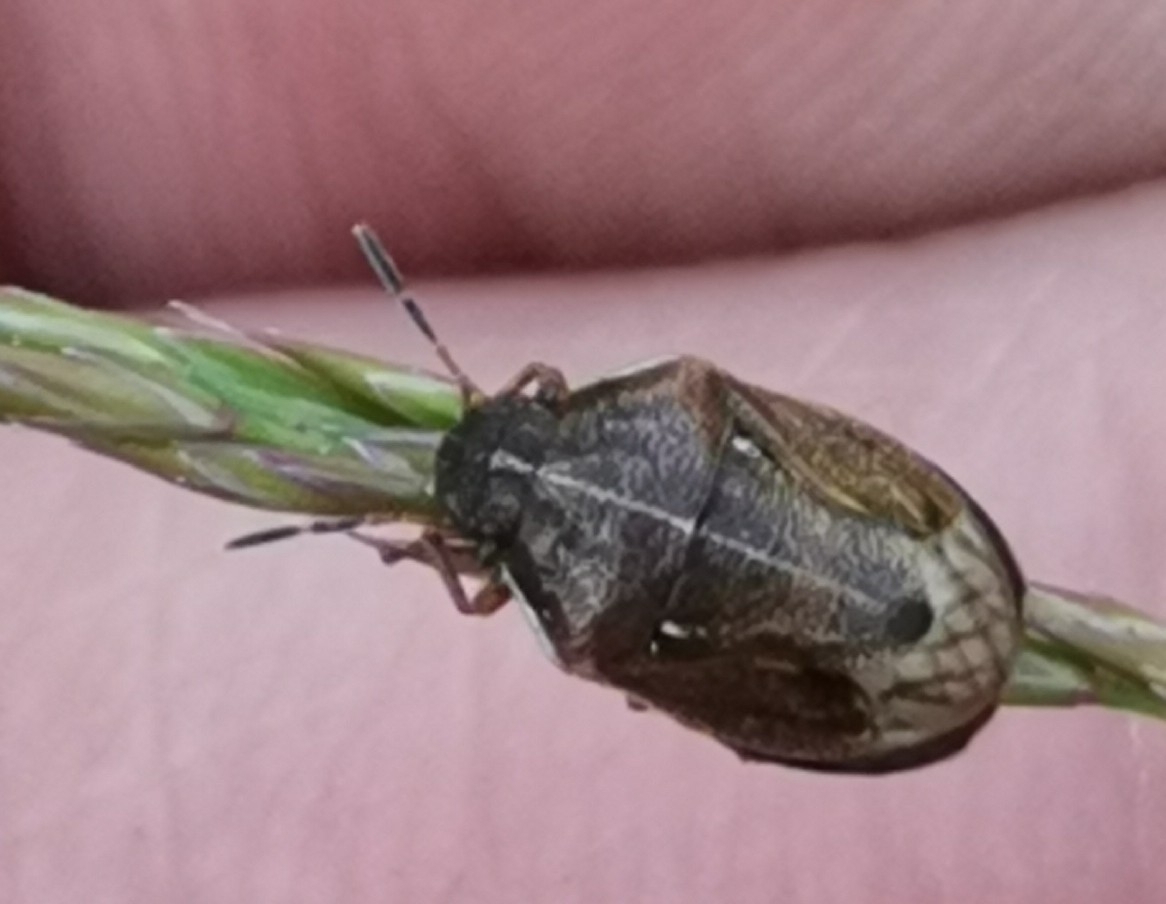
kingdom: Animalia
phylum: Arthropoda
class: Insecta
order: Hemiptera
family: Pentatomidae
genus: Neottiglossa
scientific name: Neottiglossa pusilla
